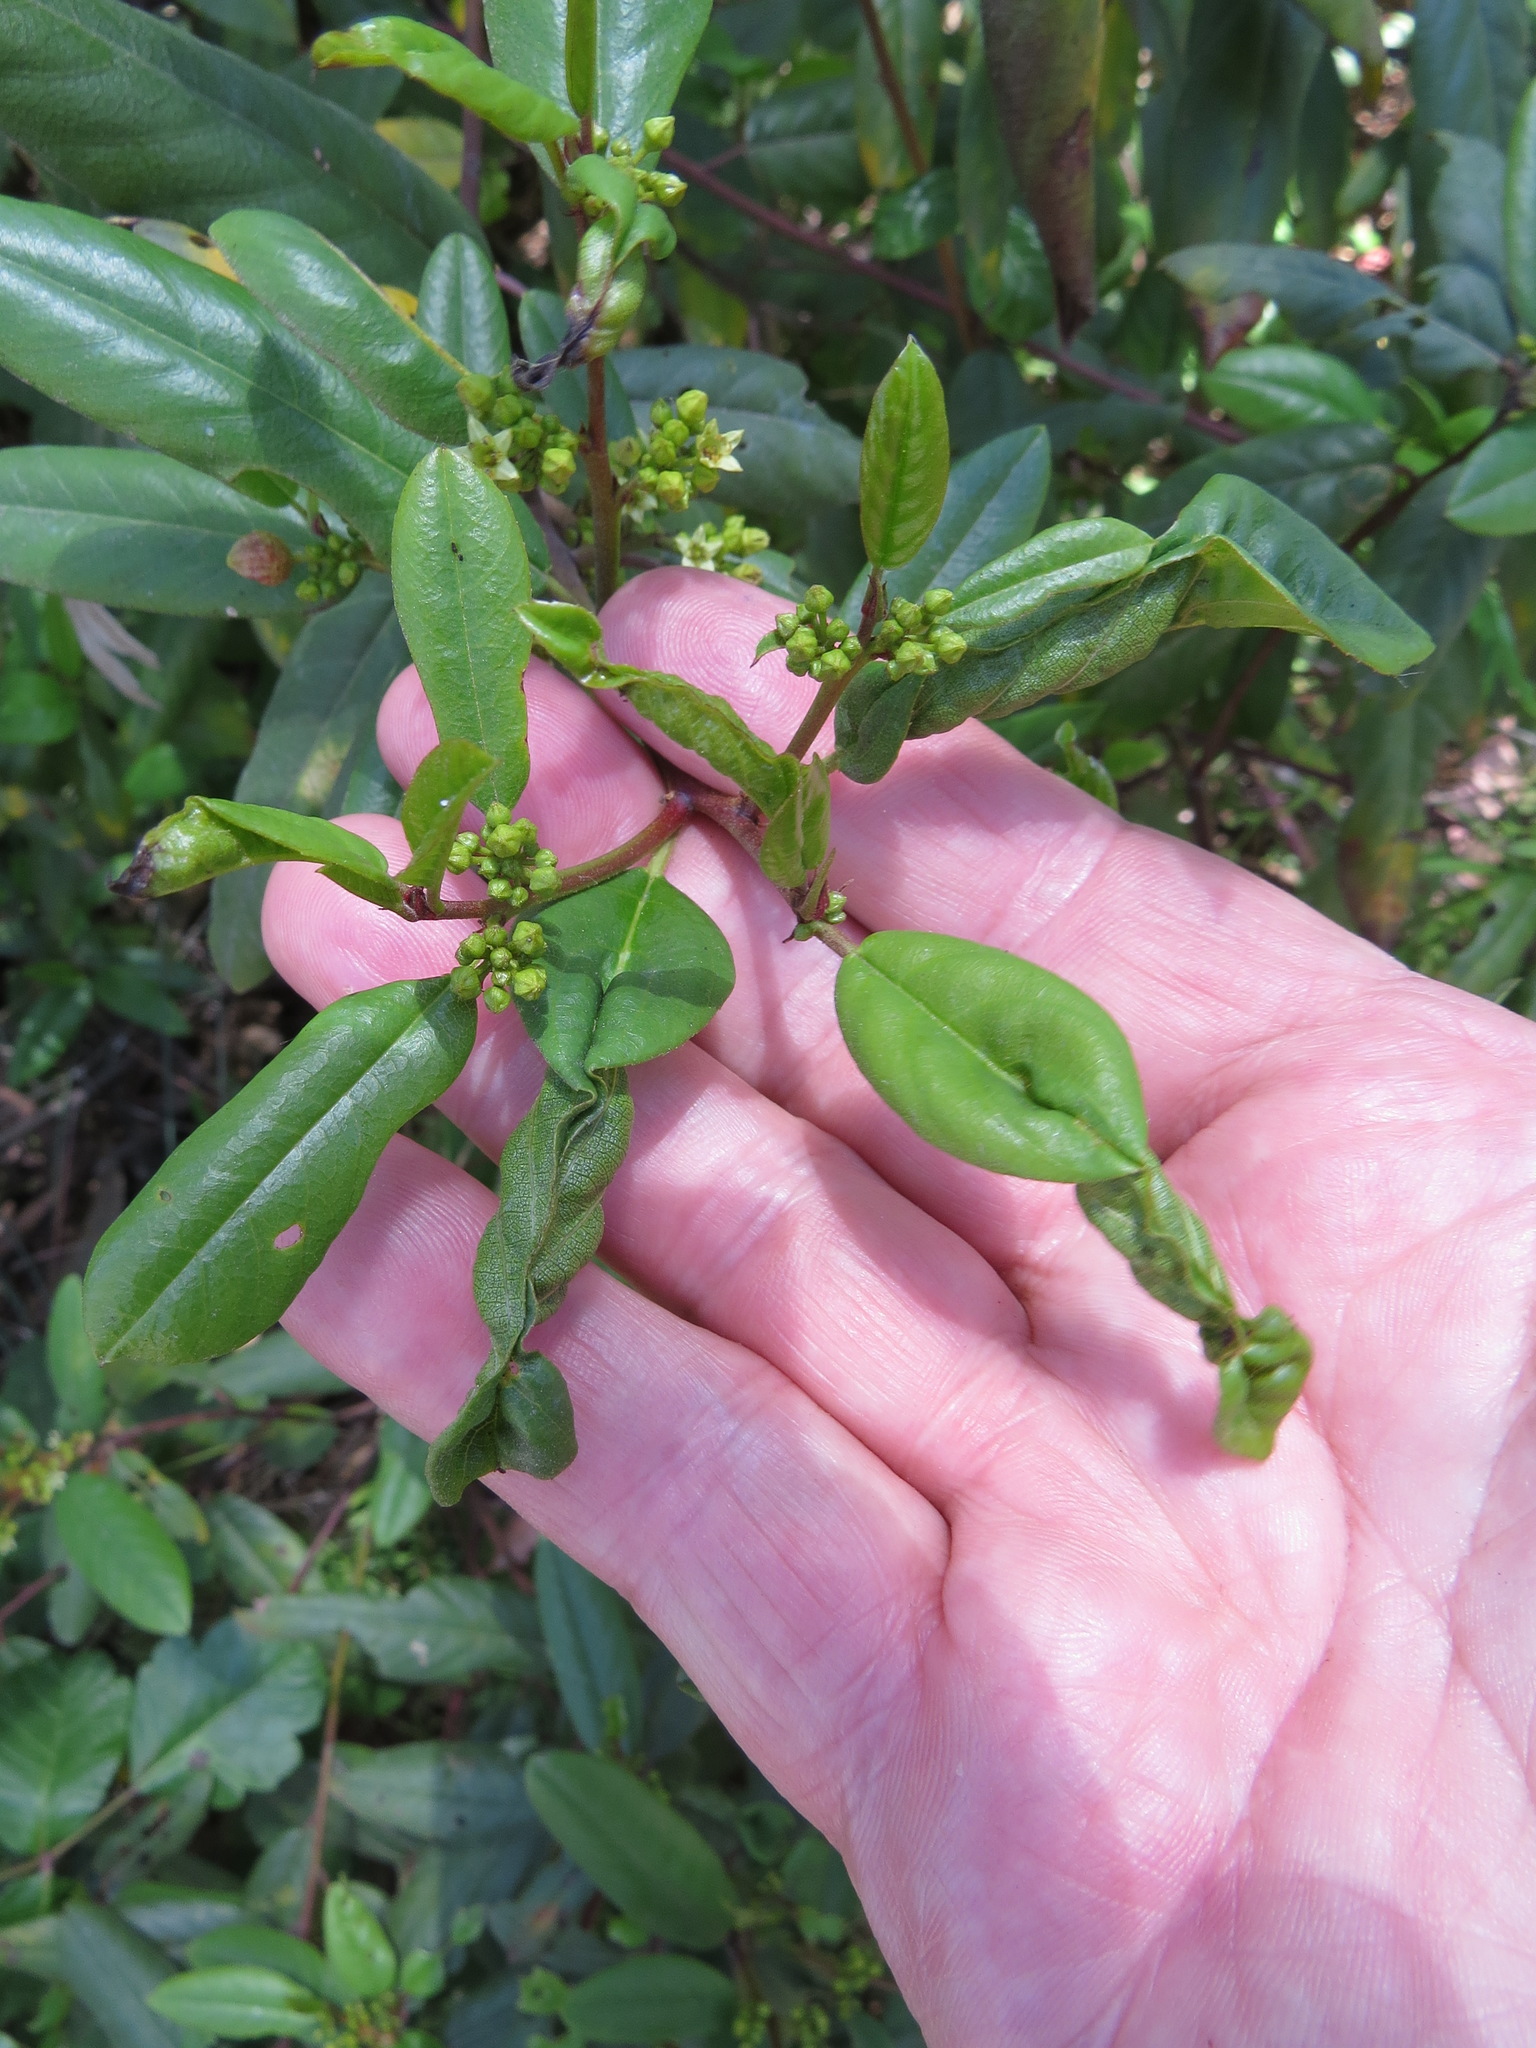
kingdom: Animalia
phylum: Arthropoda
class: Insecta
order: Lepidoptera
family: Cosmopterigidae
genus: Sorhagenia
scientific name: Sorhagenia nimbosus
